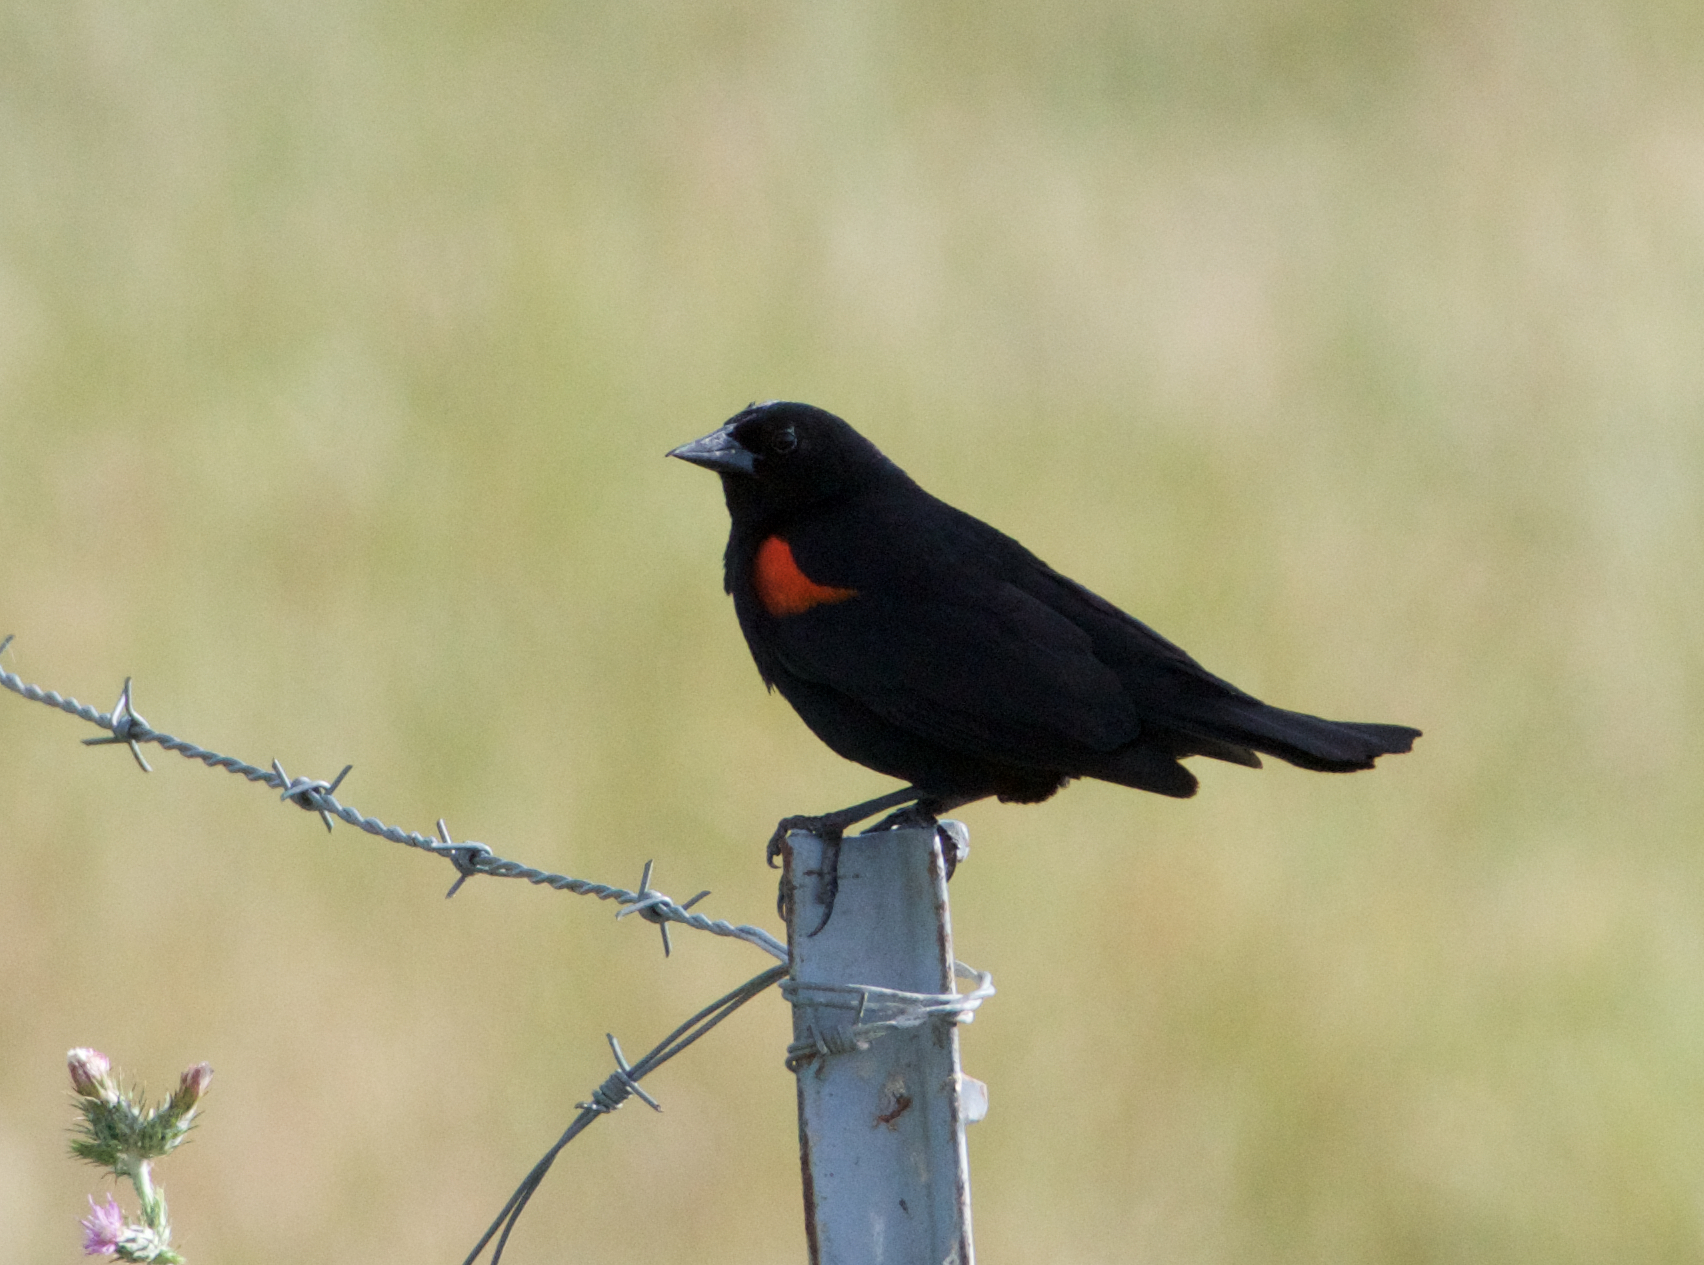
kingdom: Animalia
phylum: Chordata
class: Aves
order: Passeriformes
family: Icteridae
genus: Agelaius
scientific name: Agelaius phoeniceus
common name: Red-winged blackbird
